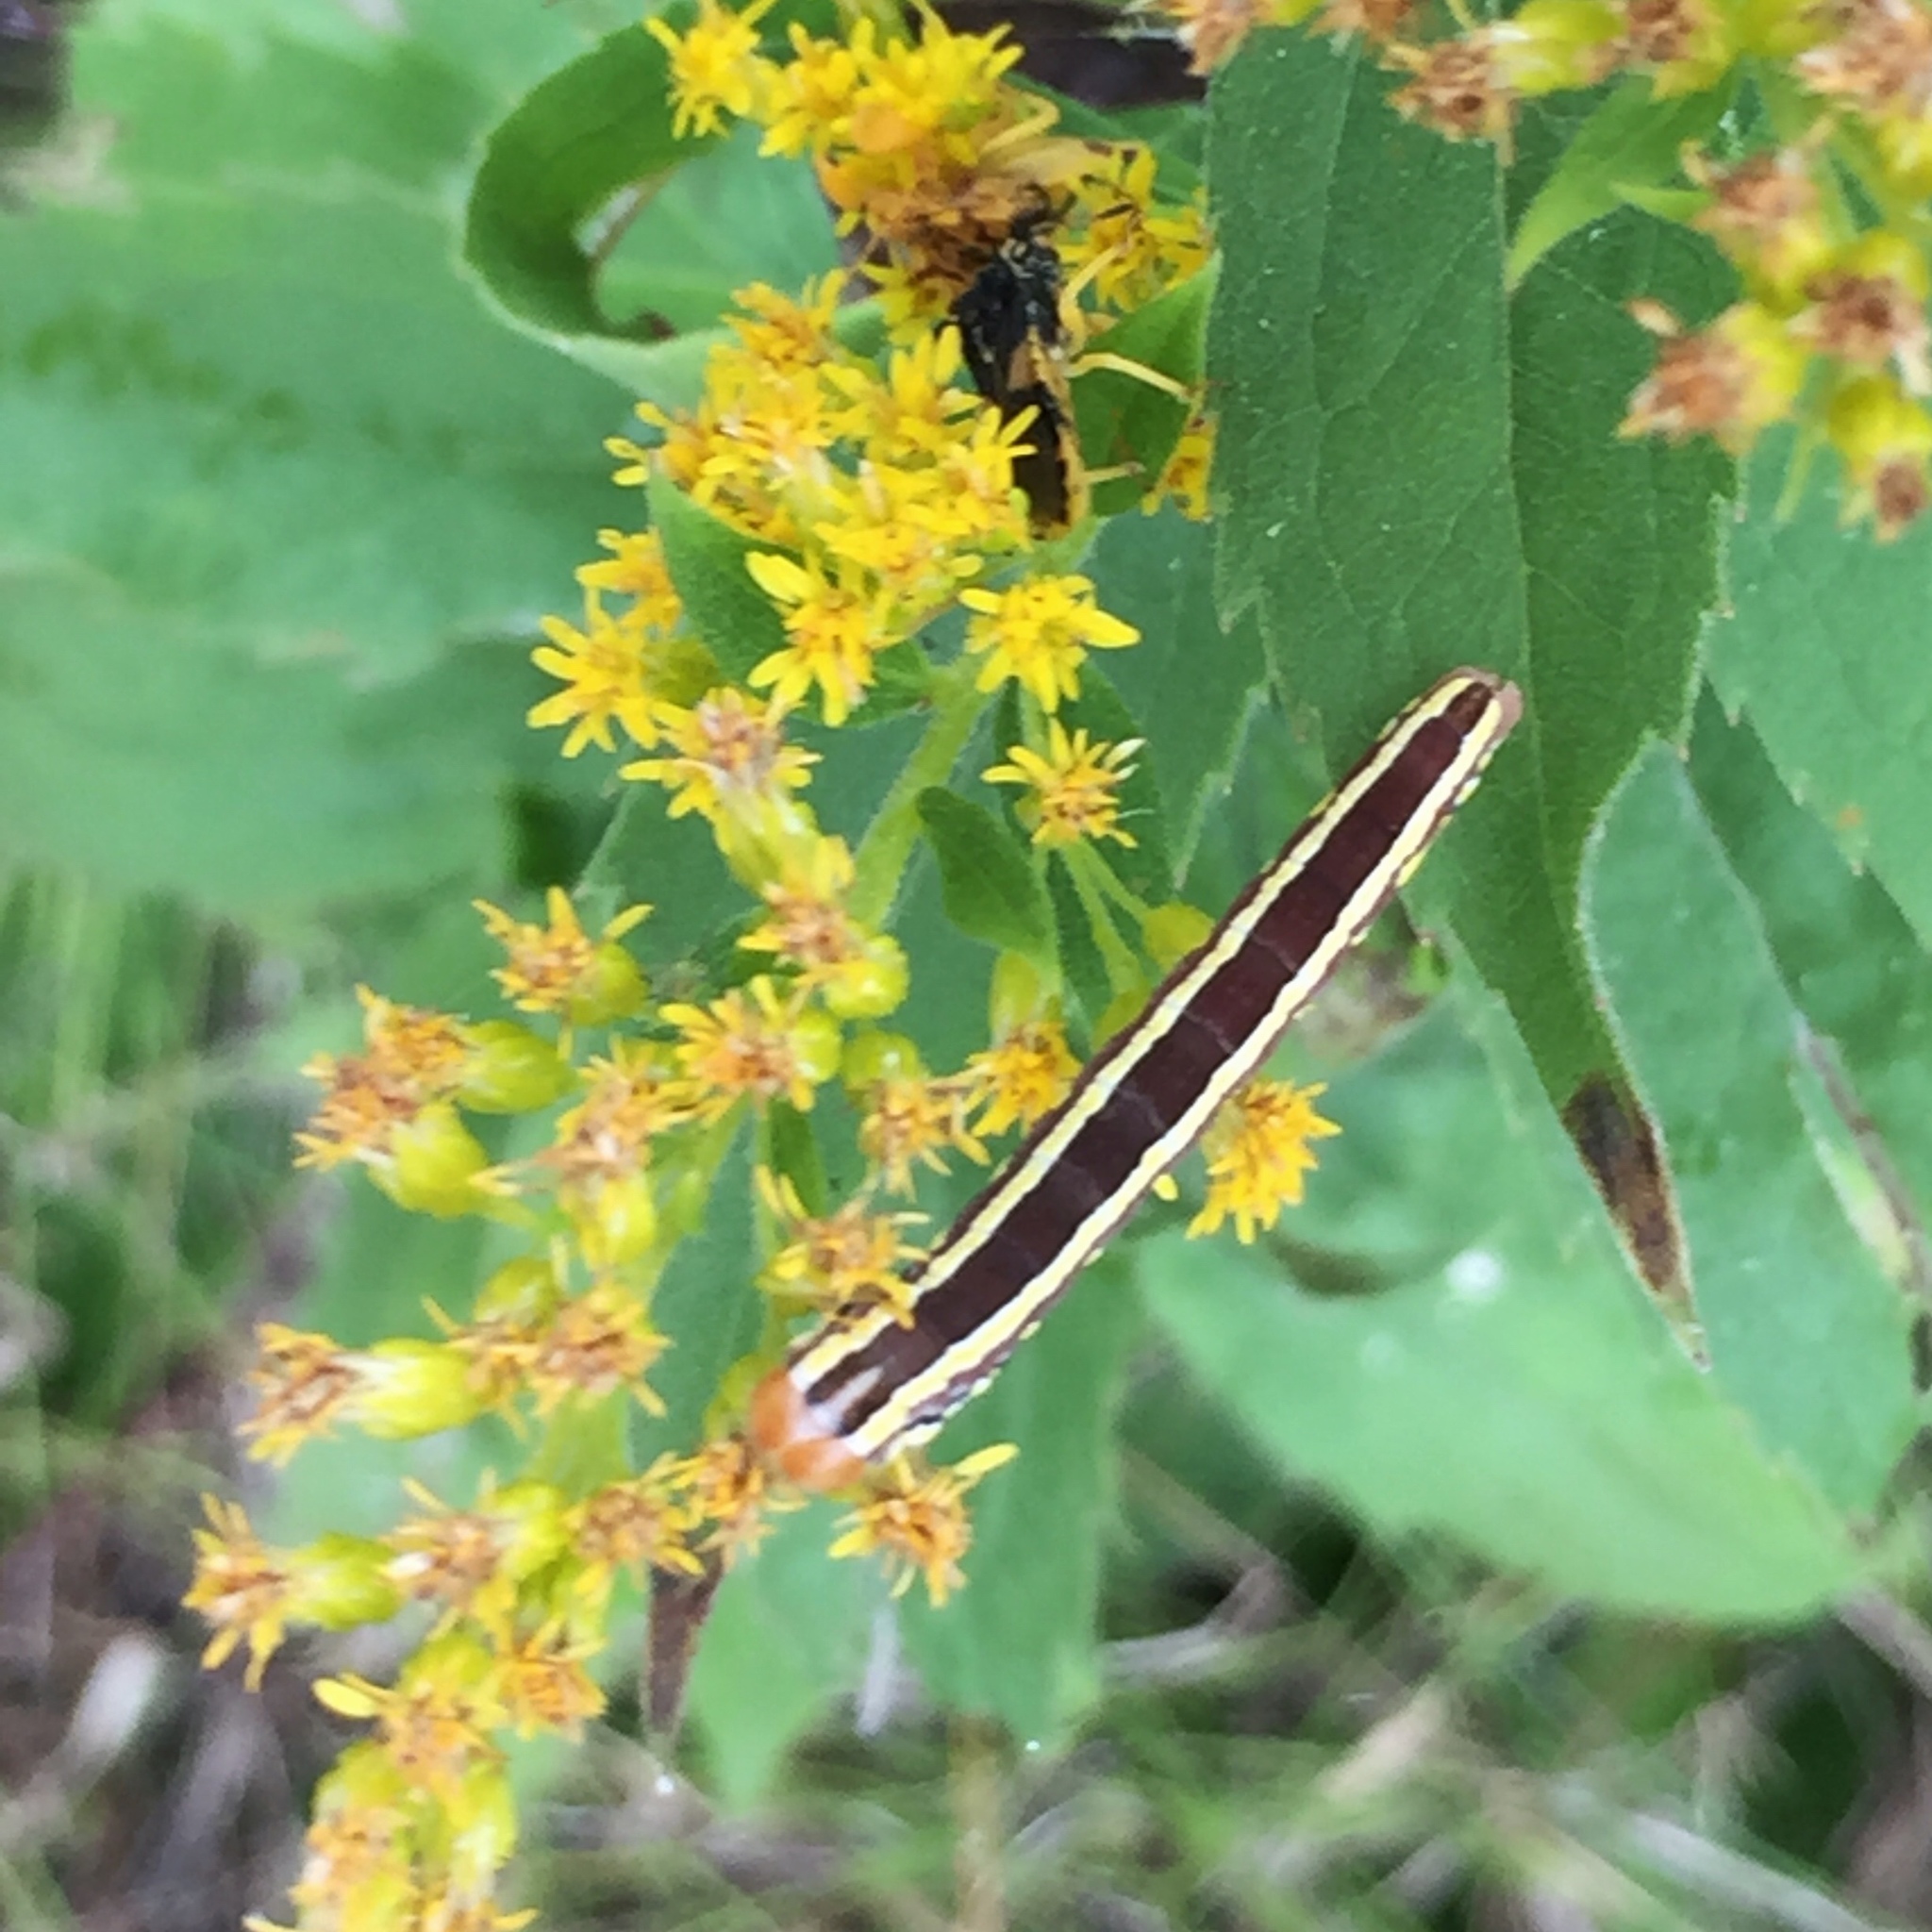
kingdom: Animalia
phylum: Arthropoda
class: Insecta
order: Lepidoptera
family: Noctuidae
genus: Trichordestra
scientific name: Trichordestra legitima
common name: Striped garden caterpillar
